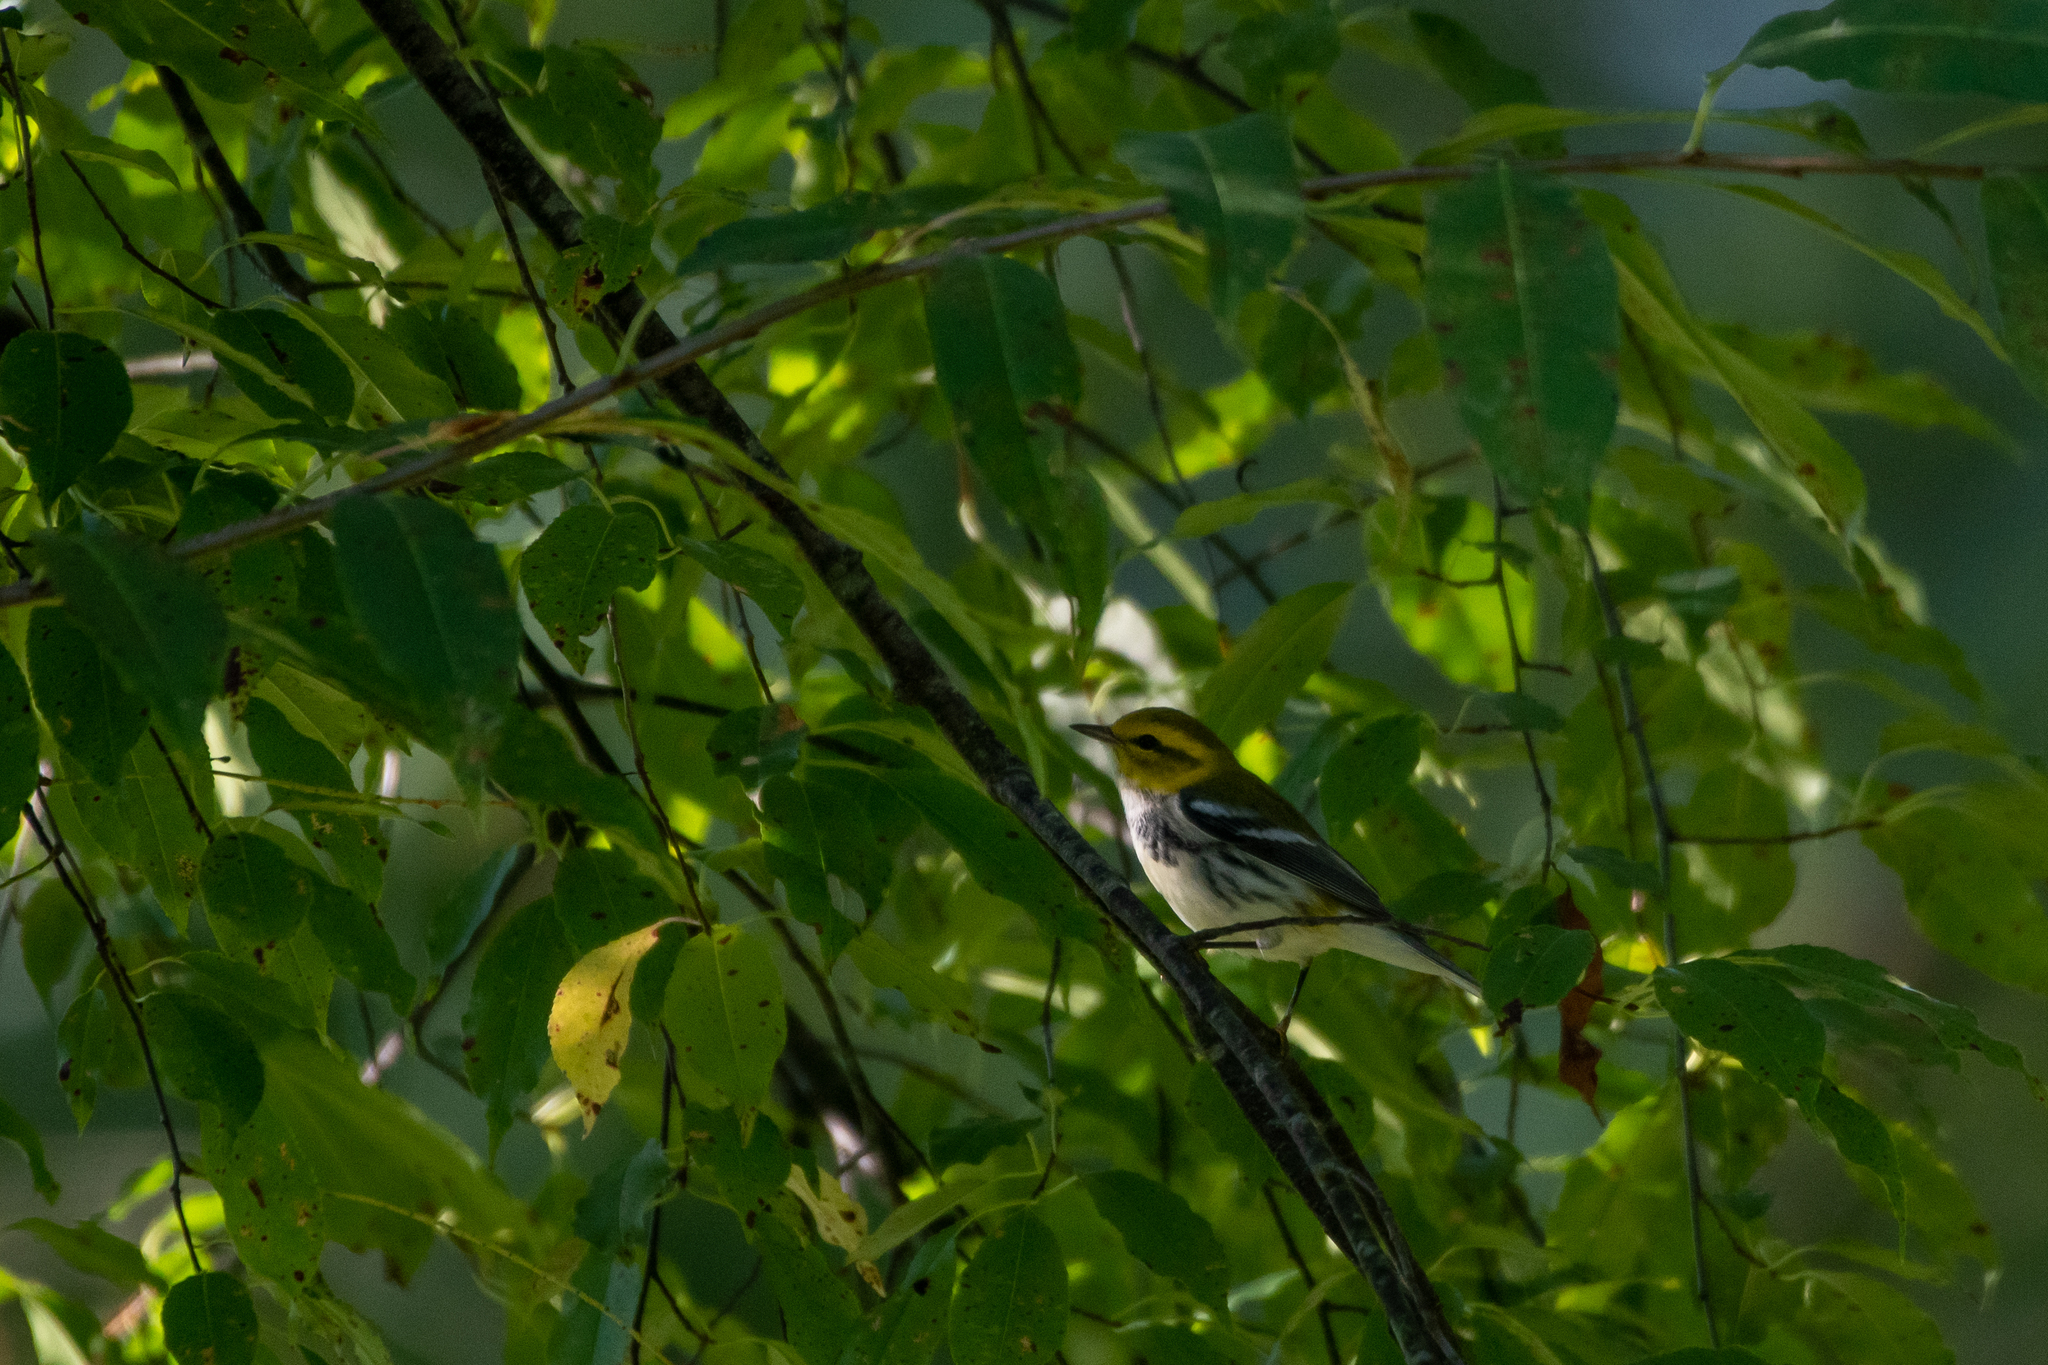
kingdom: Animalia
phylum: Chordata
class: Aves
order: Passeriformes
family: Parulidae
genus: Setophaga
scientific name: Setophaga virens
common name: Black-throated green warbler
